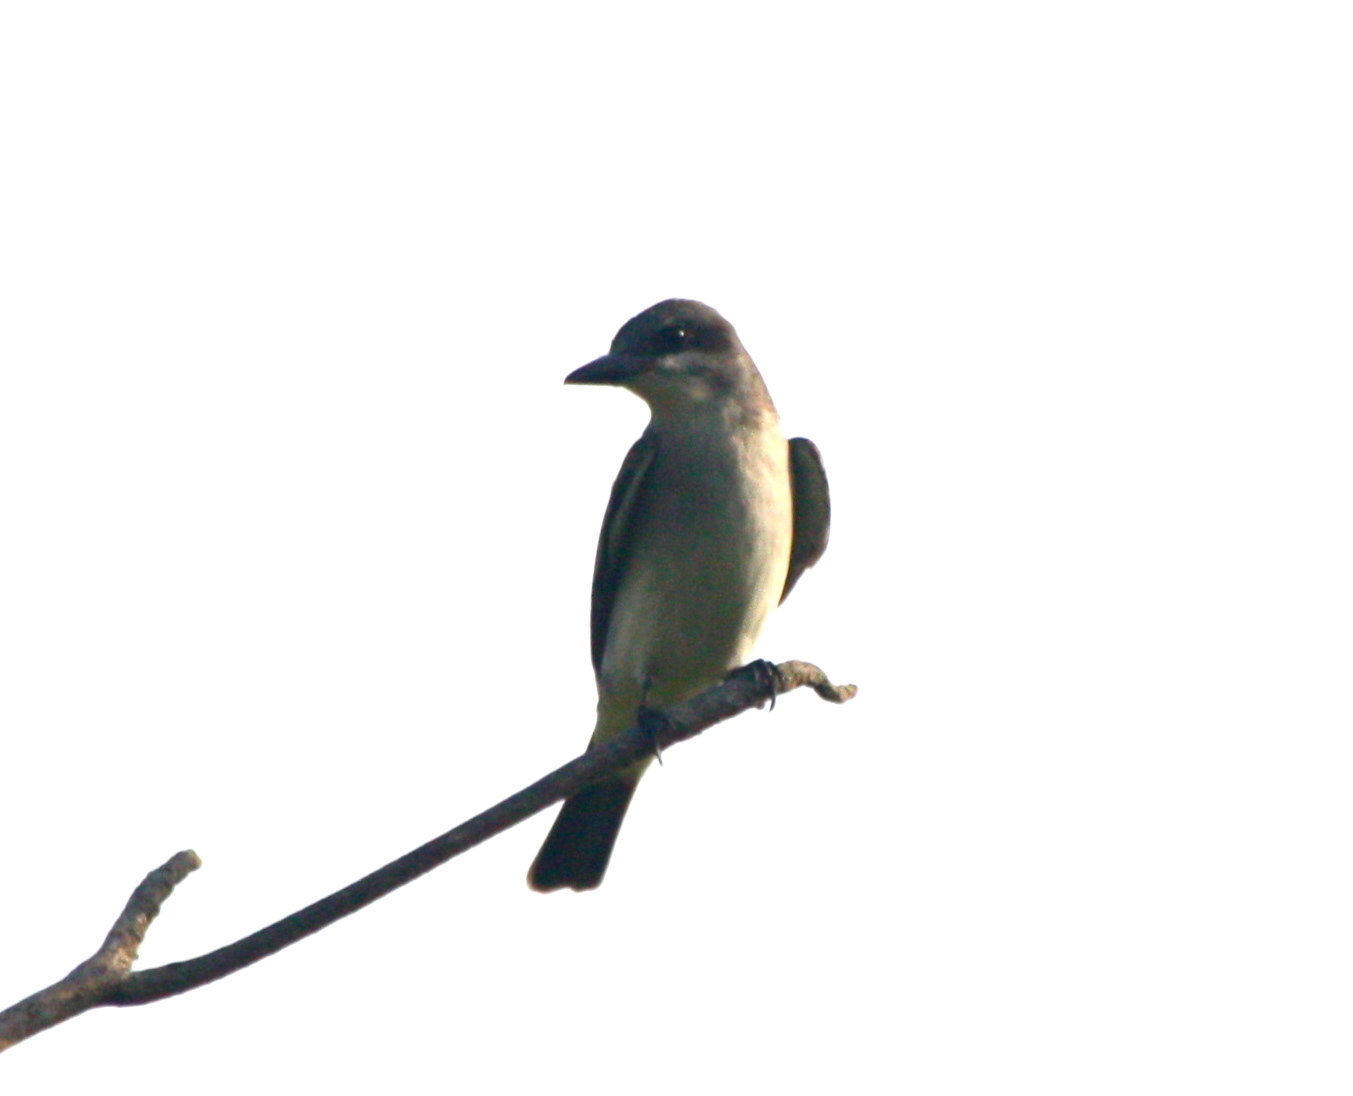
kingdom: Animalia
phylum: Chordata
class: Aves
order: Passeriformes
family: Tyrannidae
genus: Tyrannus
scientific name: Tyrannus dominicensis
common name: Gray kingbird
